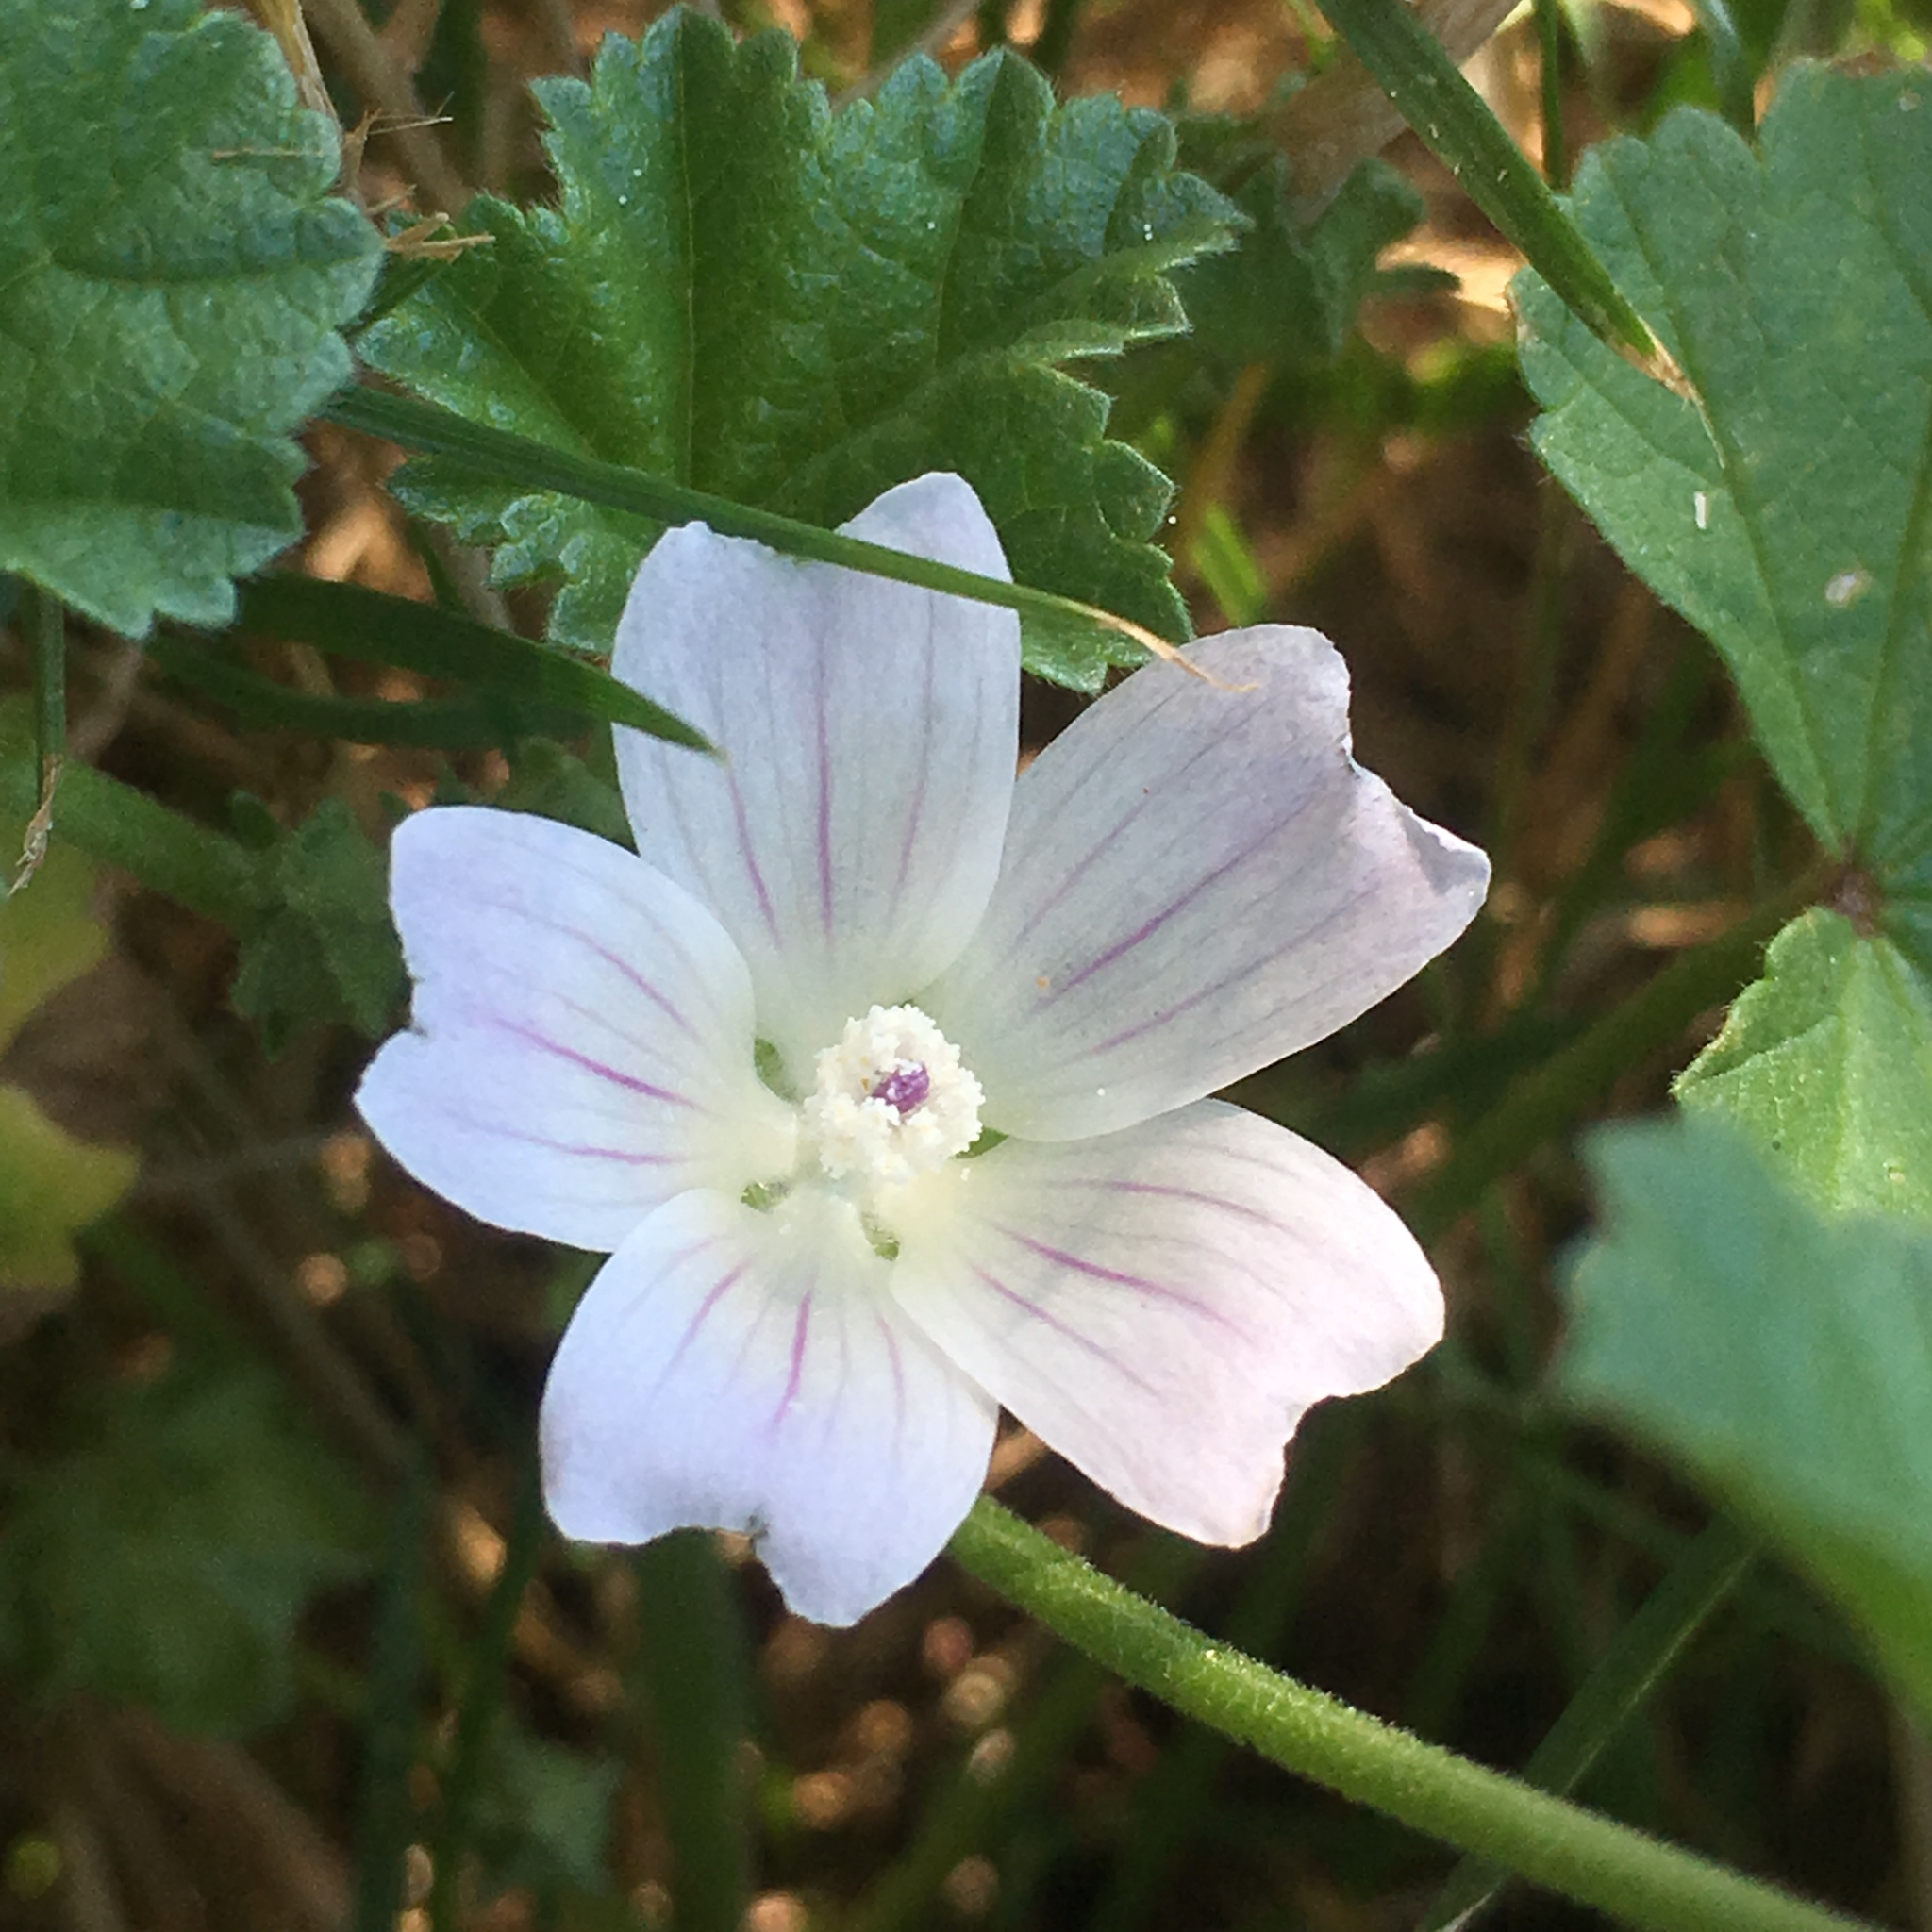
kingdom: Plantae
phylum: Tracheophyta
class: Magnoliopsida
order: Malvales
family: Malvaceae
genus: Malva
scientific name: Malva neglecta
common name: Common mallow
